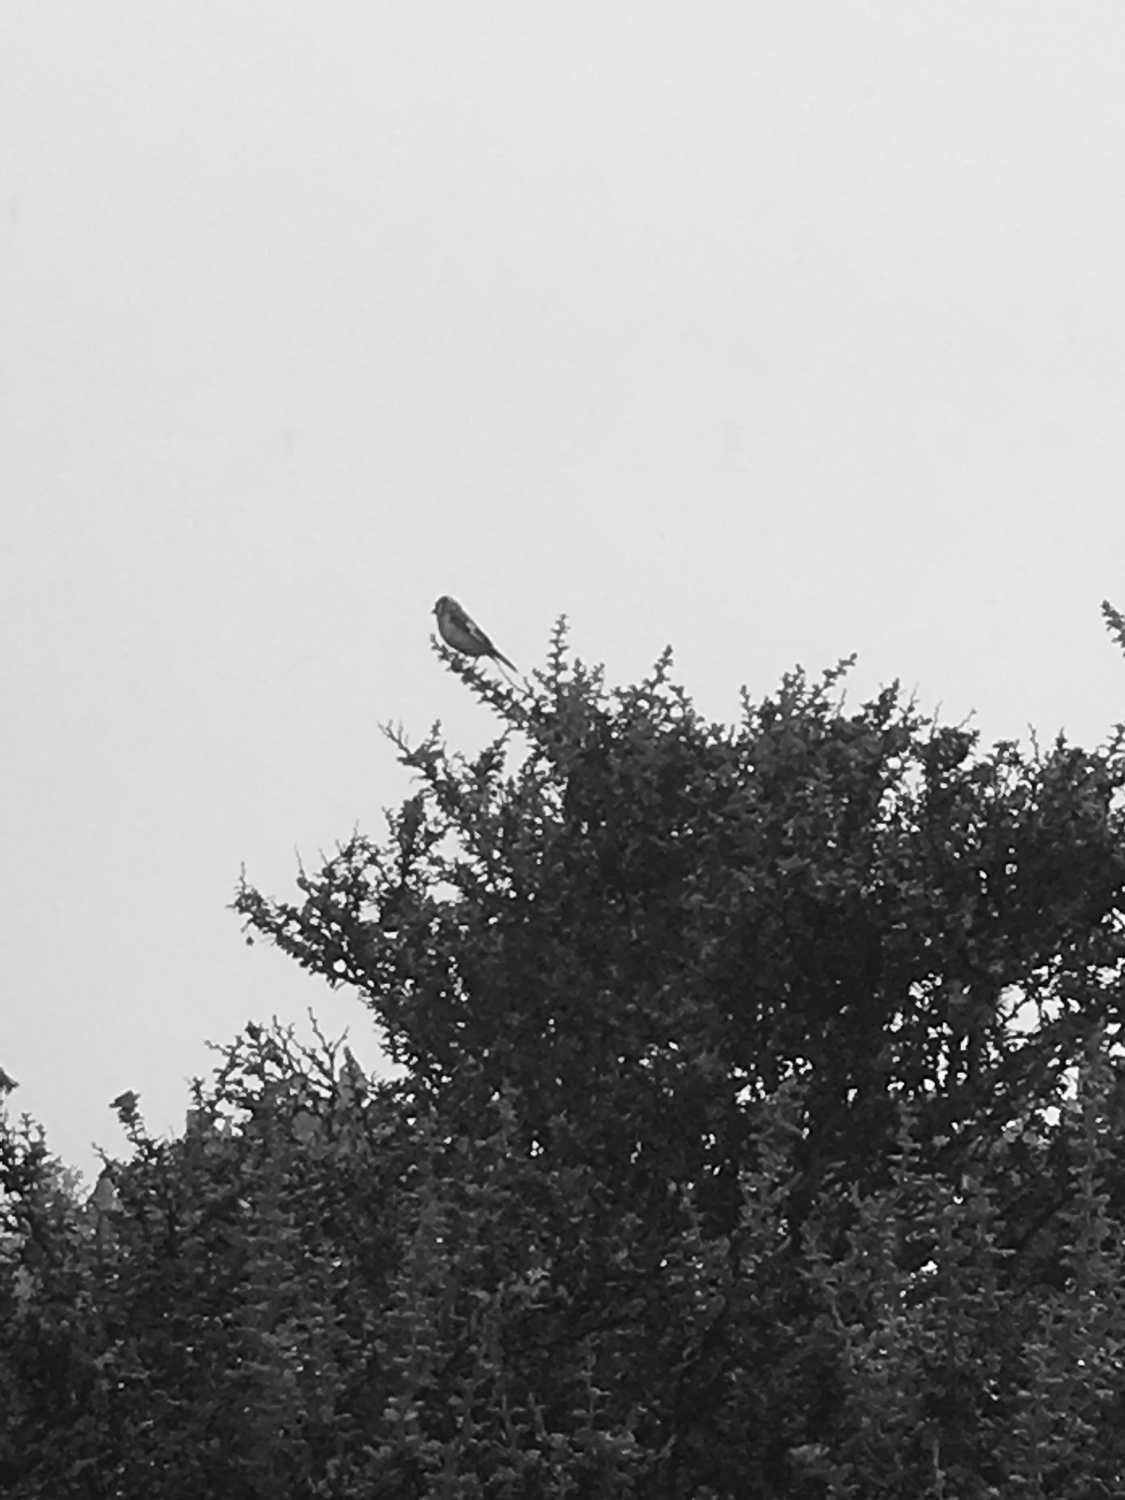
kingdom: Animalia
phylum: Chordata
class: Aves
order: Passeriformes
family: Fringillidae
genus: Fringilla
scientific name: Fringilla coelebs
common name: Common chaffinch
